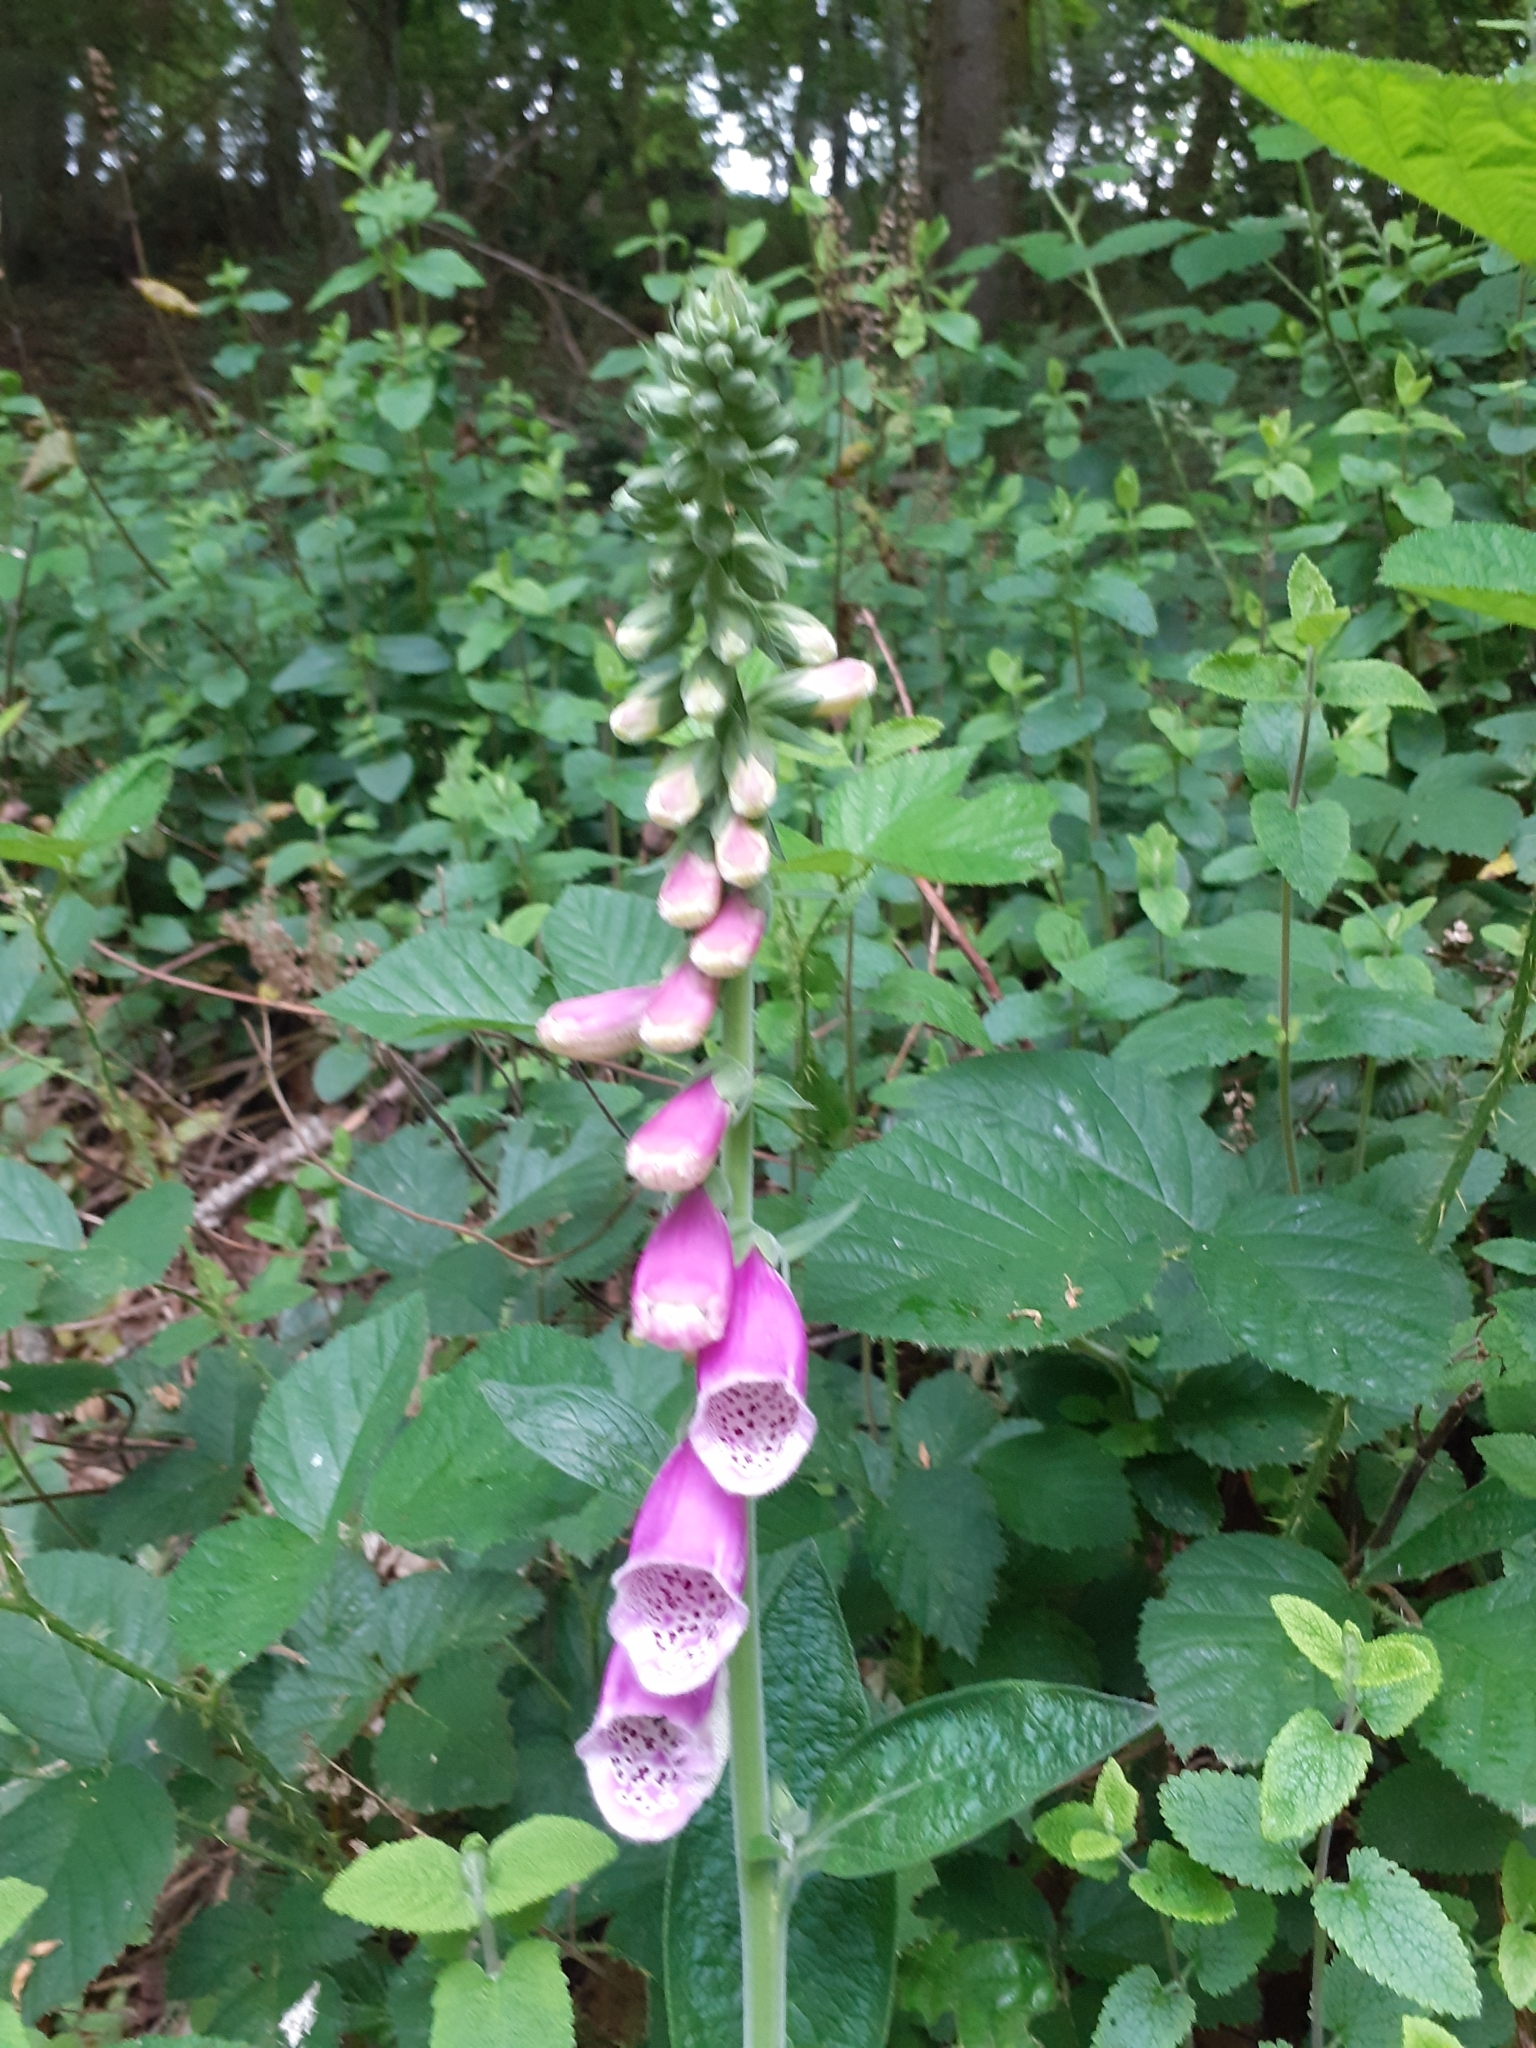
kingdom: Plantae
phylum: Tracheophyta
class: Magnoliopsida
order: Lamiales
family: Plantaginaceae
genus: Digitalis
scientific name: Digitalis purpurea
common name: Foxglove
